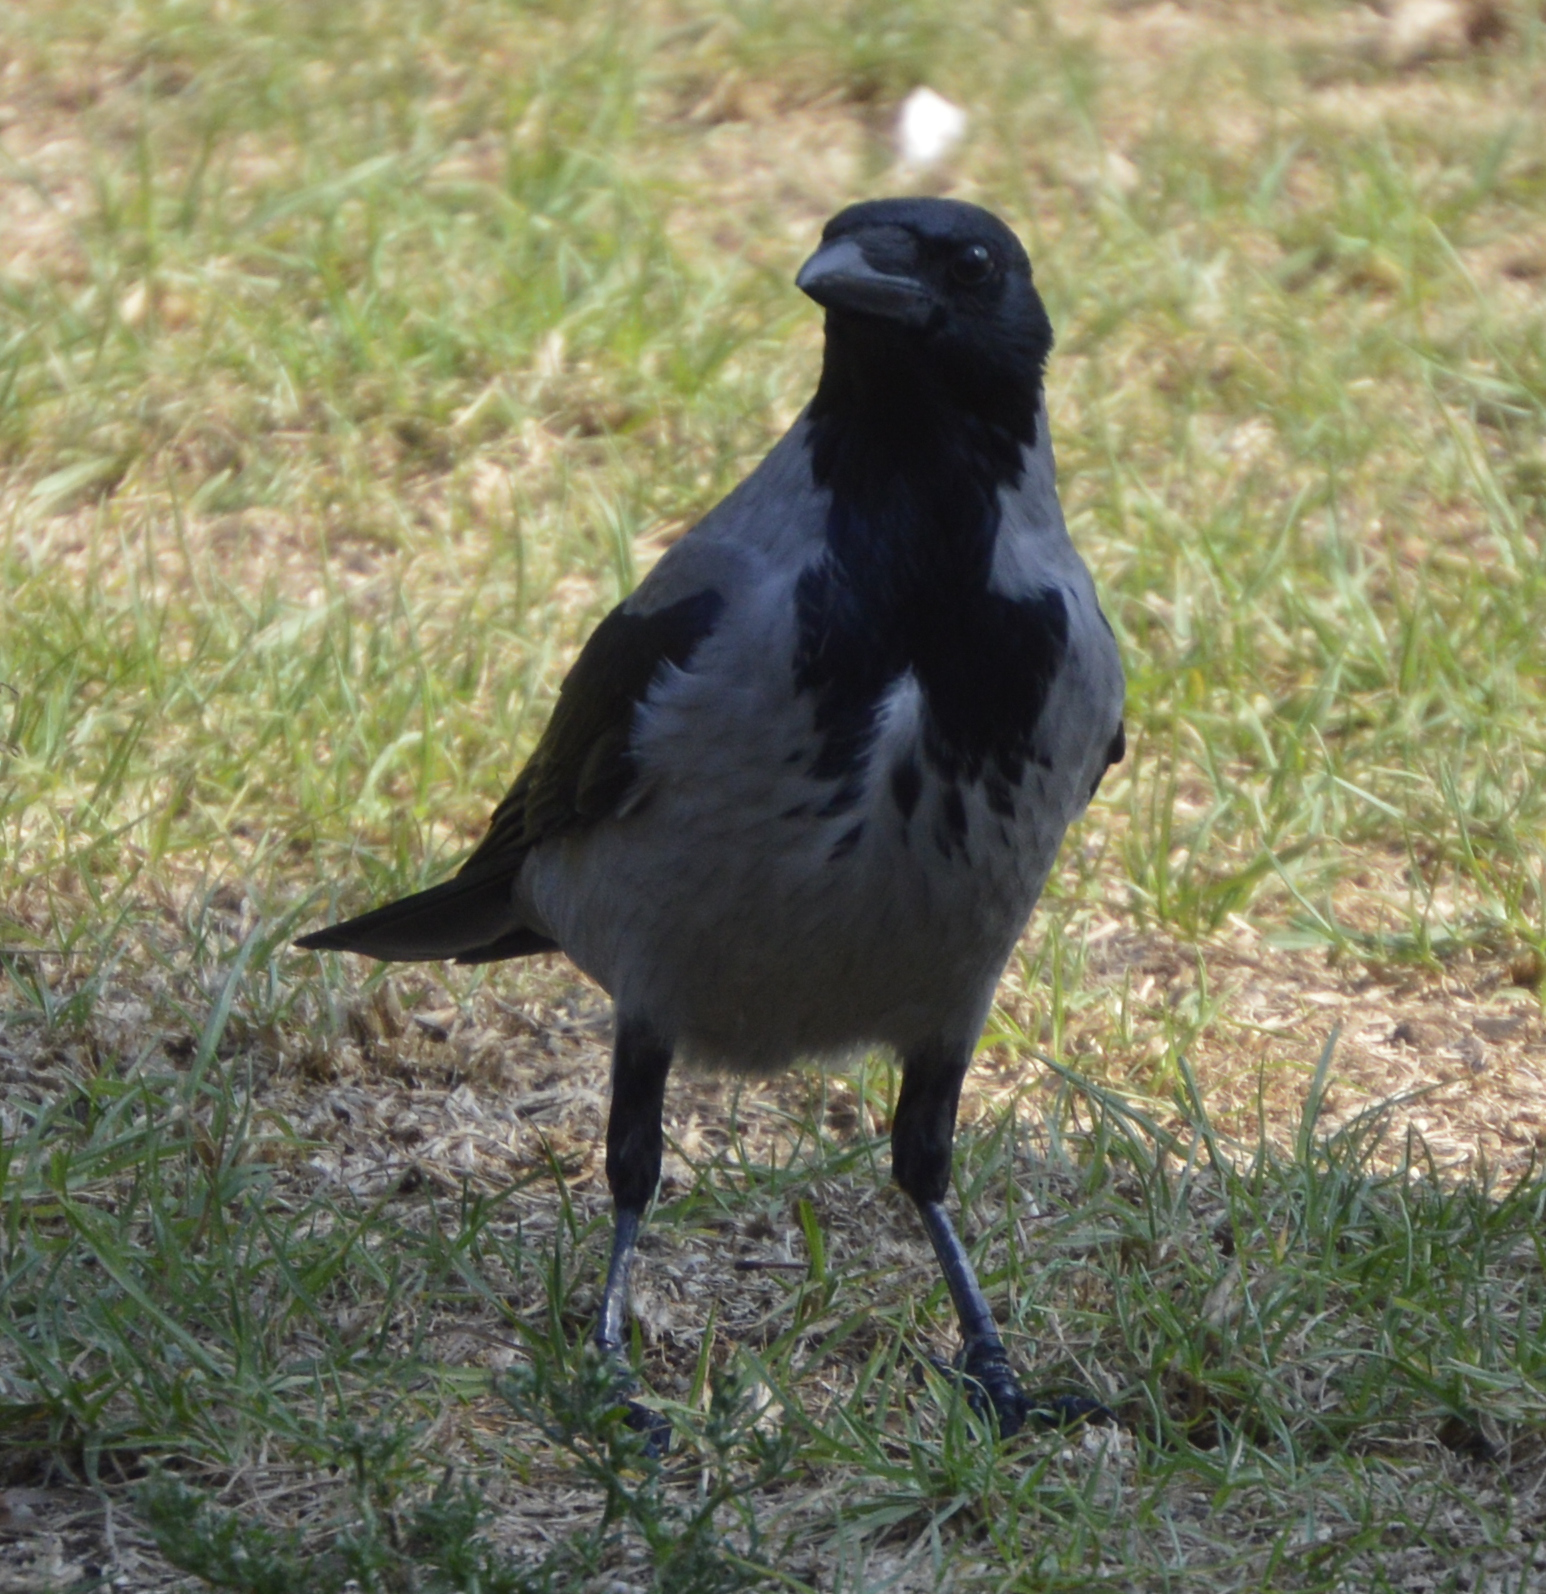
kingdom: Animalia
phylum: Chordata
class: Aves
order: Passeriformes
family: Corvidae
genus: Corvus
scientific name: Corvus cornix
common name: Hooded crow
